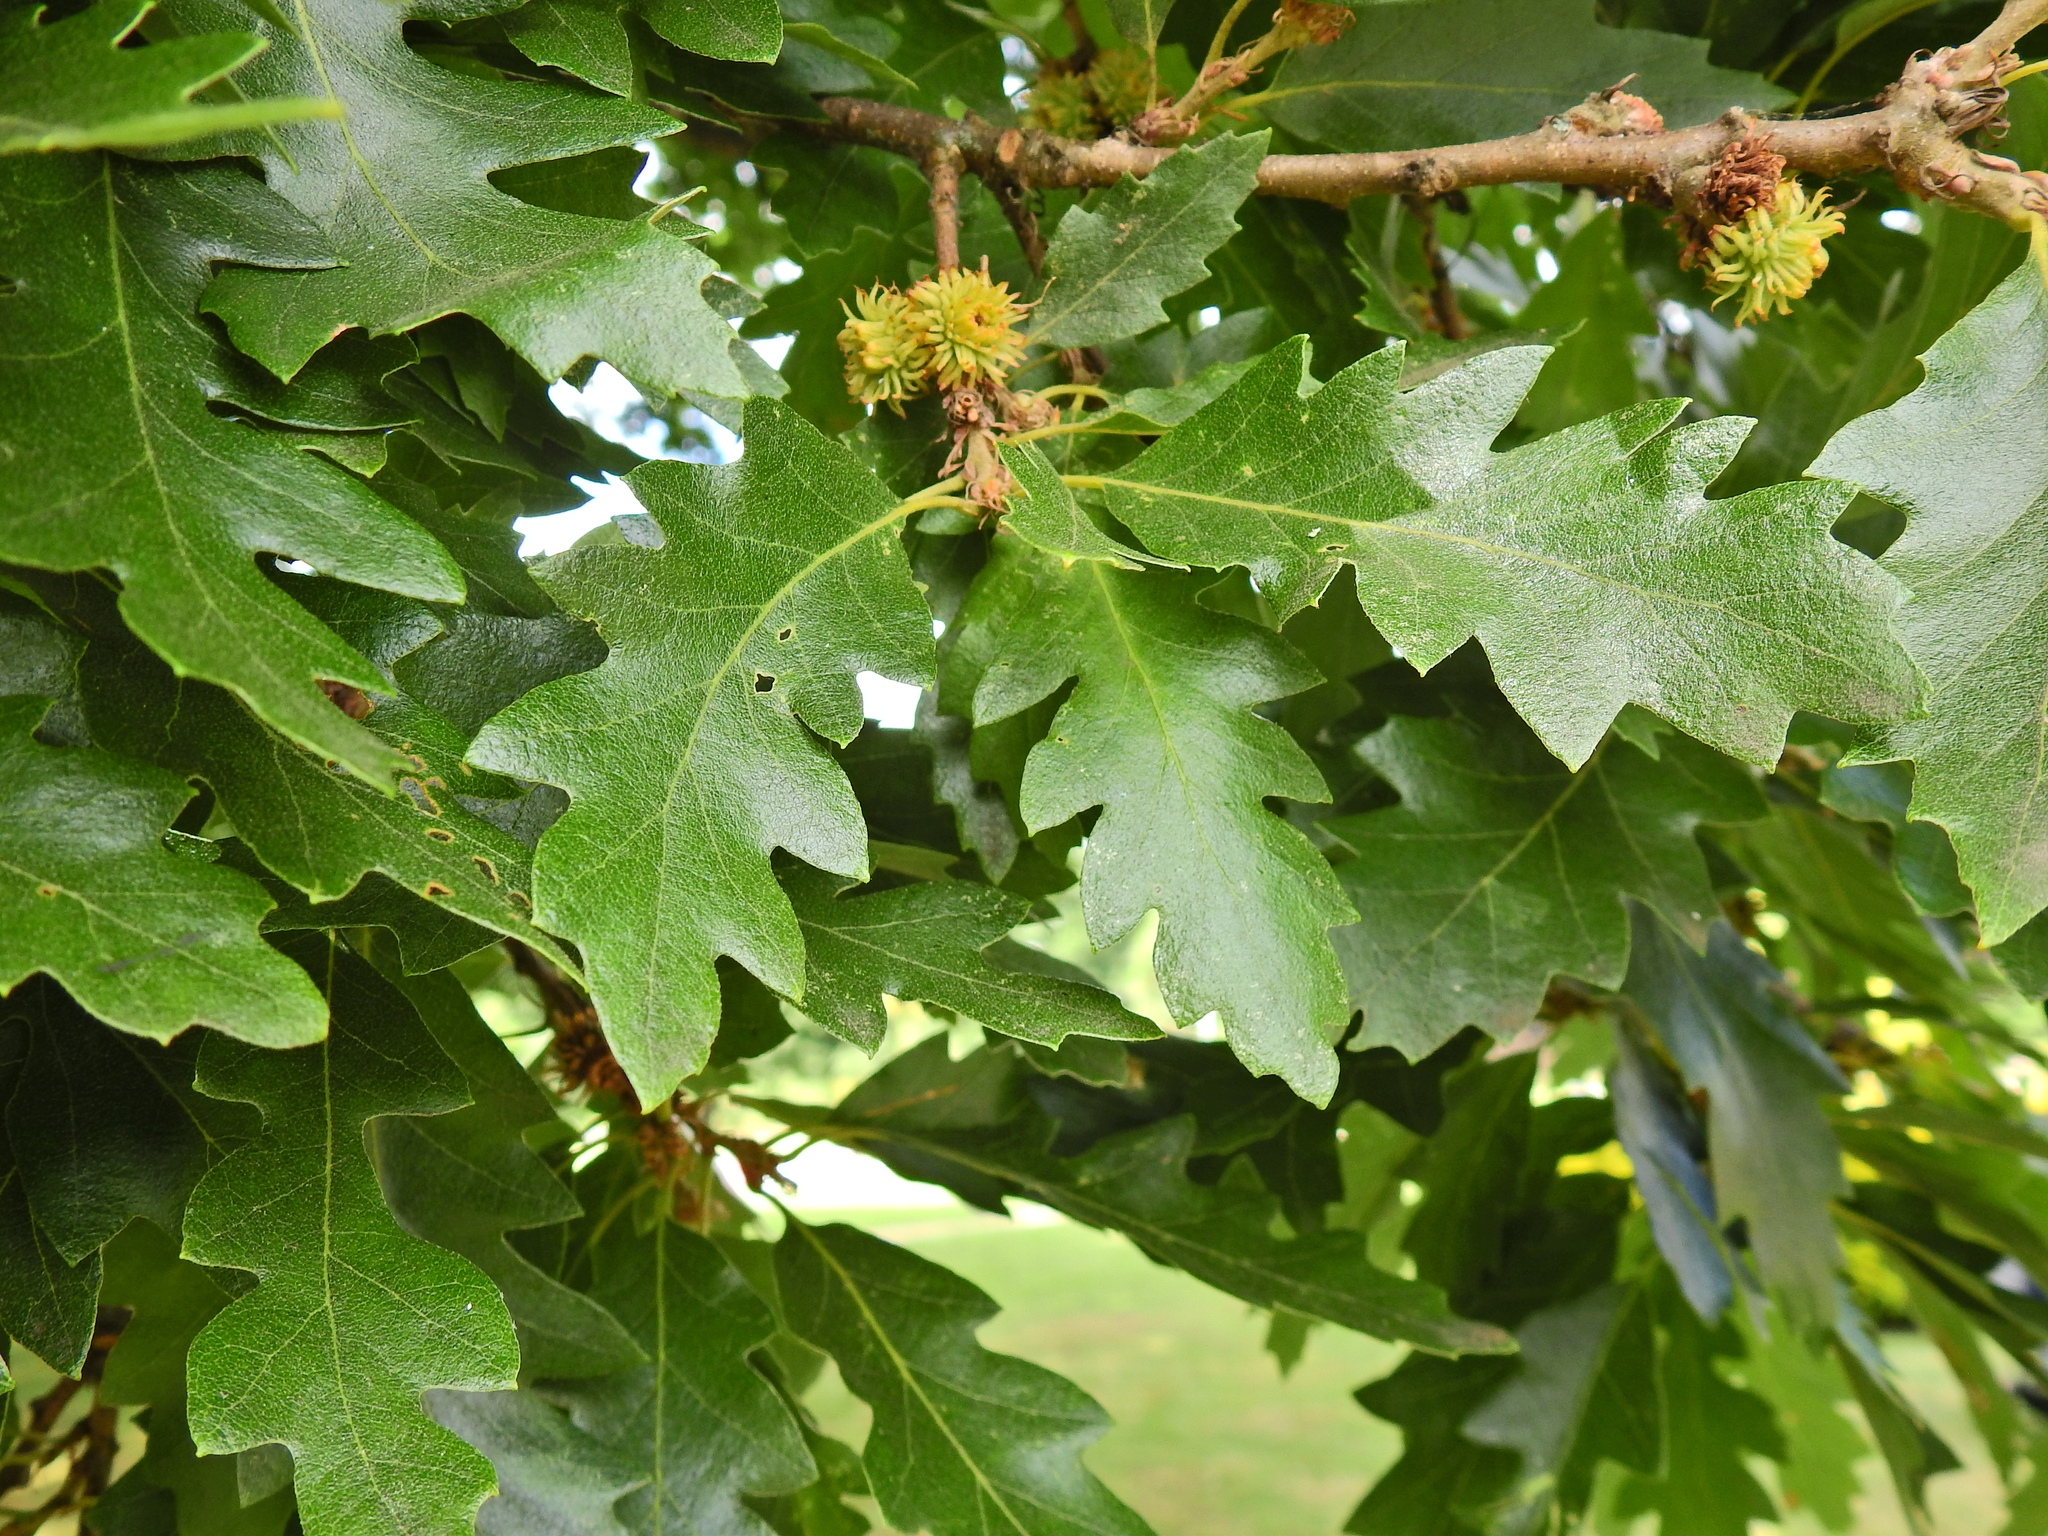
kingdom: Plantae
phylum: Tracheophyta
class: Magnoliopsida
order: Fagales
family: Fagaceae
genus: Quercus
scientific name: Quercus cerris
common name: Turkey oak
